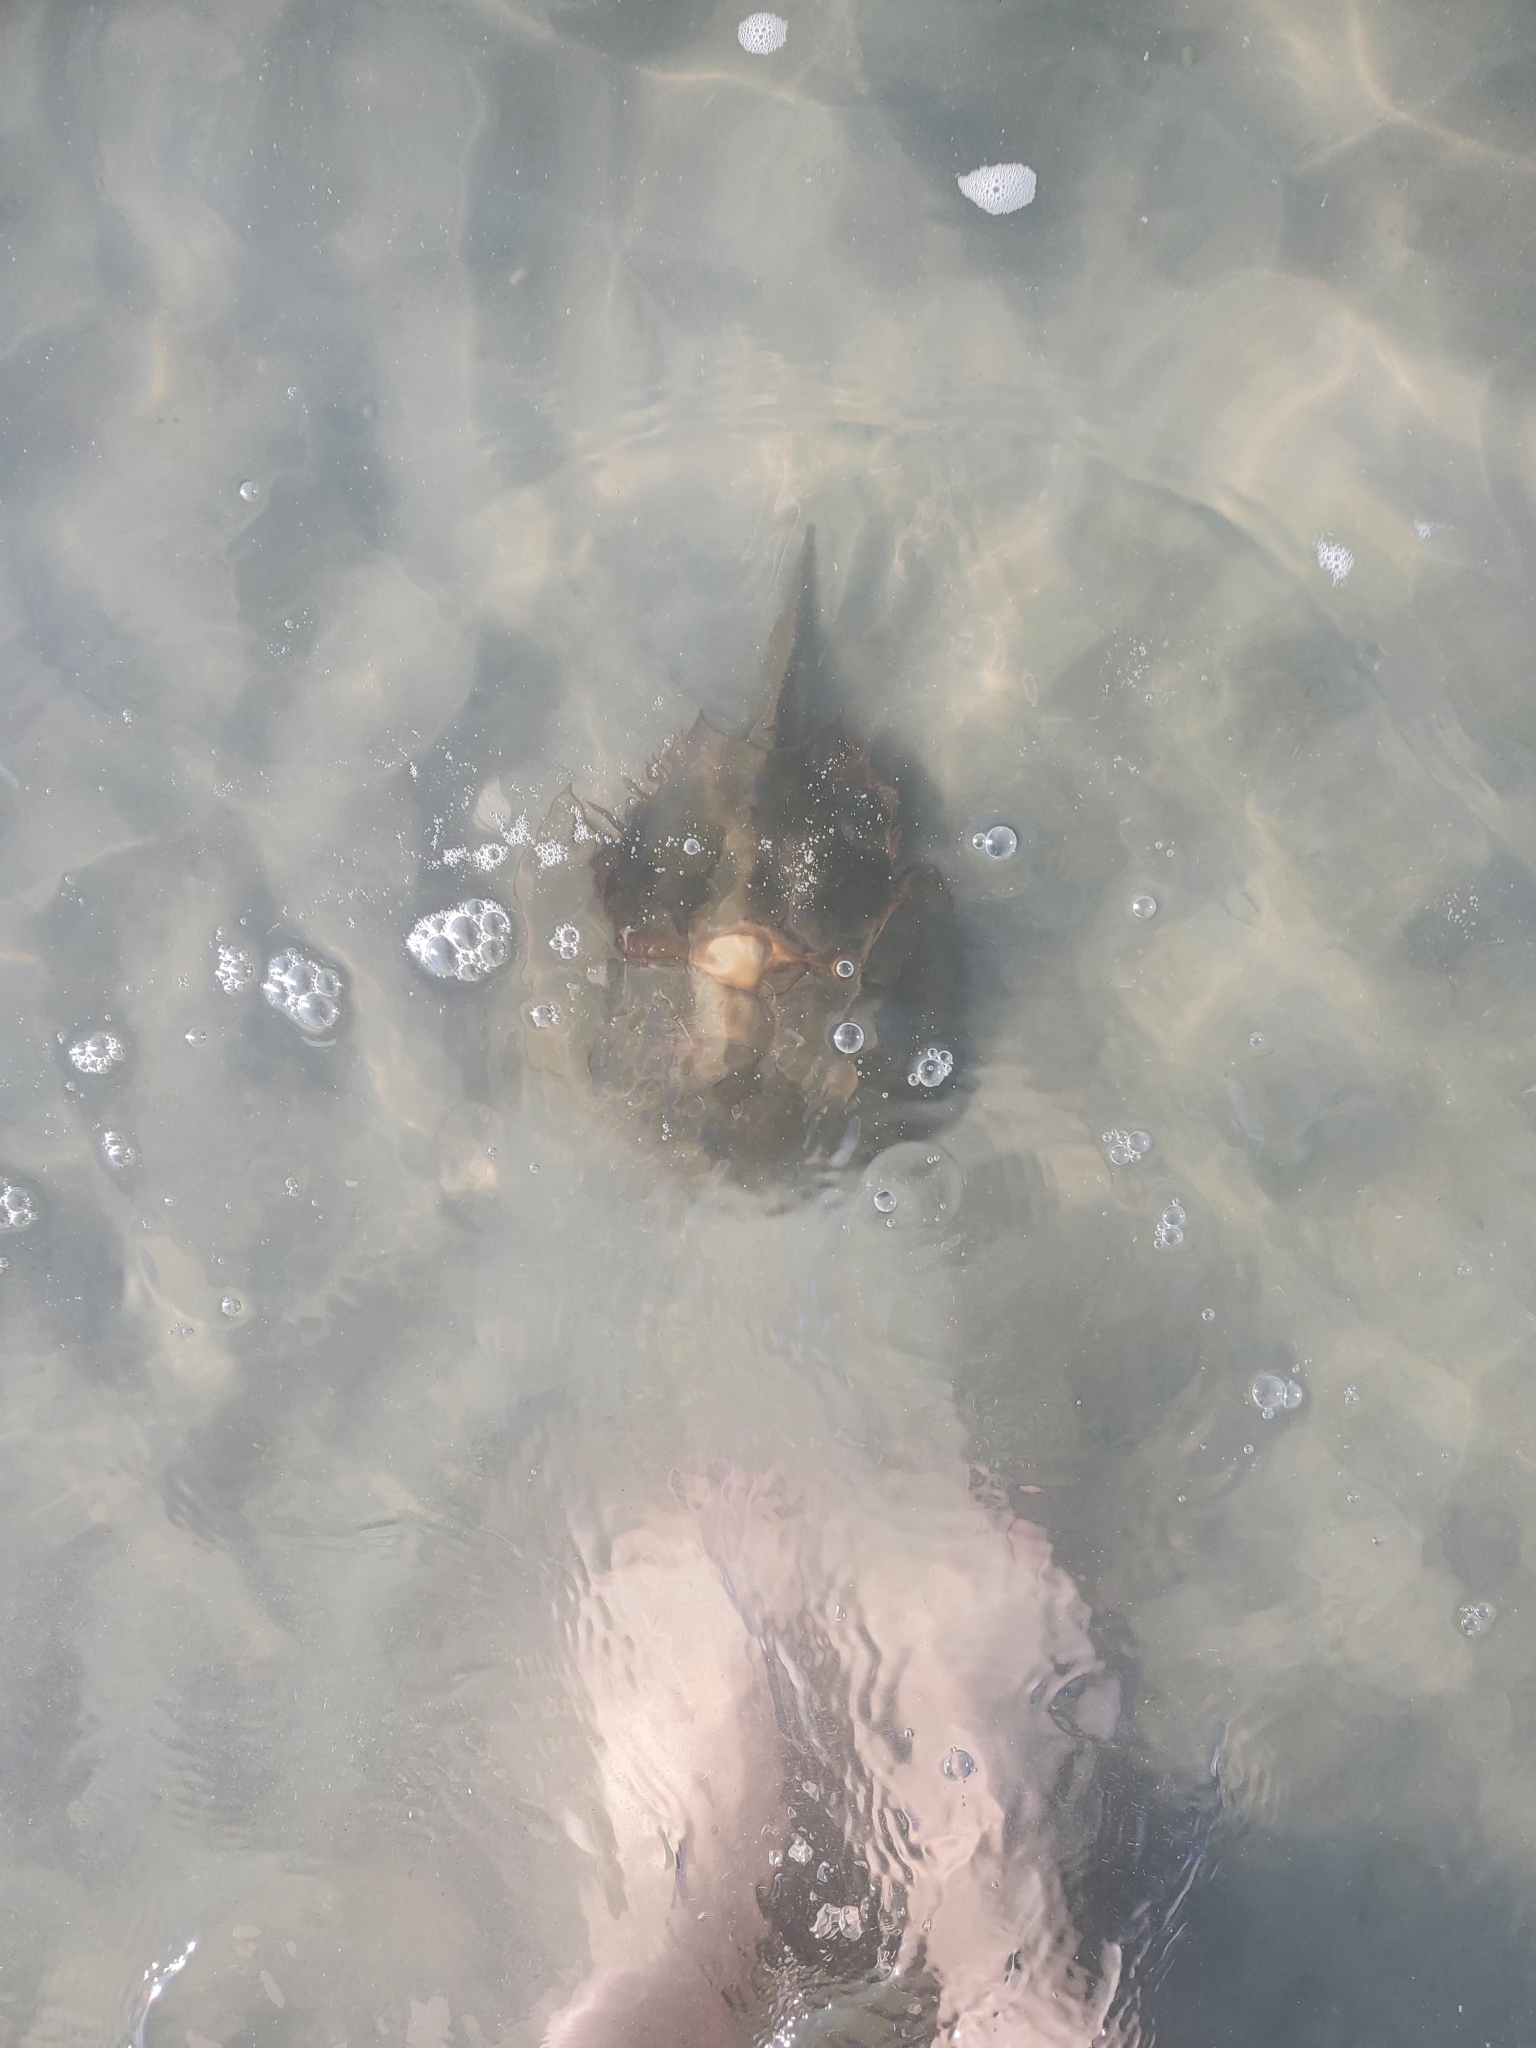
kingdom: Animalia
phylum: Arthropoda
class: Merostomata
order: Xiphosurida
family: Limulidae
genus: Limulus
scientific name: Limulus polyphemus
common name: Horseshoe crab
